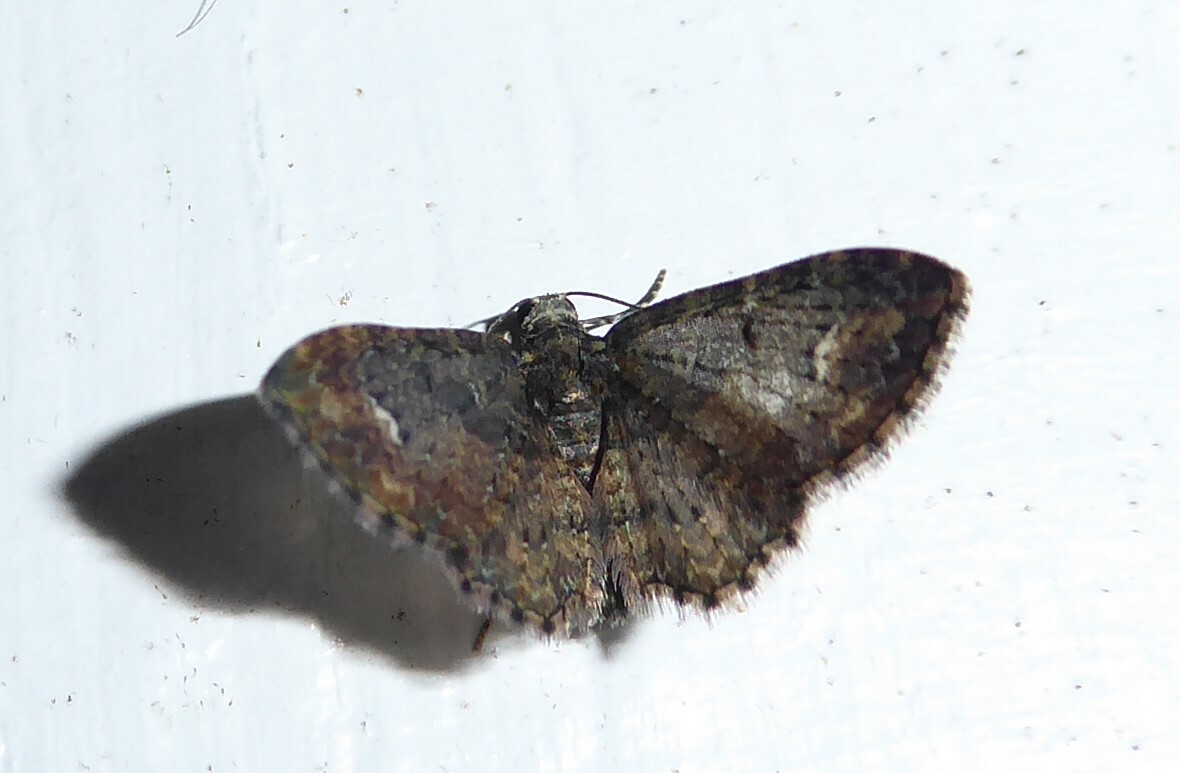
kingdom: Animalia
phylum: Arthropoda
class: Insecta
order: Lepidoptera
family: Geometridae
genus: Pasiphilodes
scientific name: Pasiphilodes testulata
